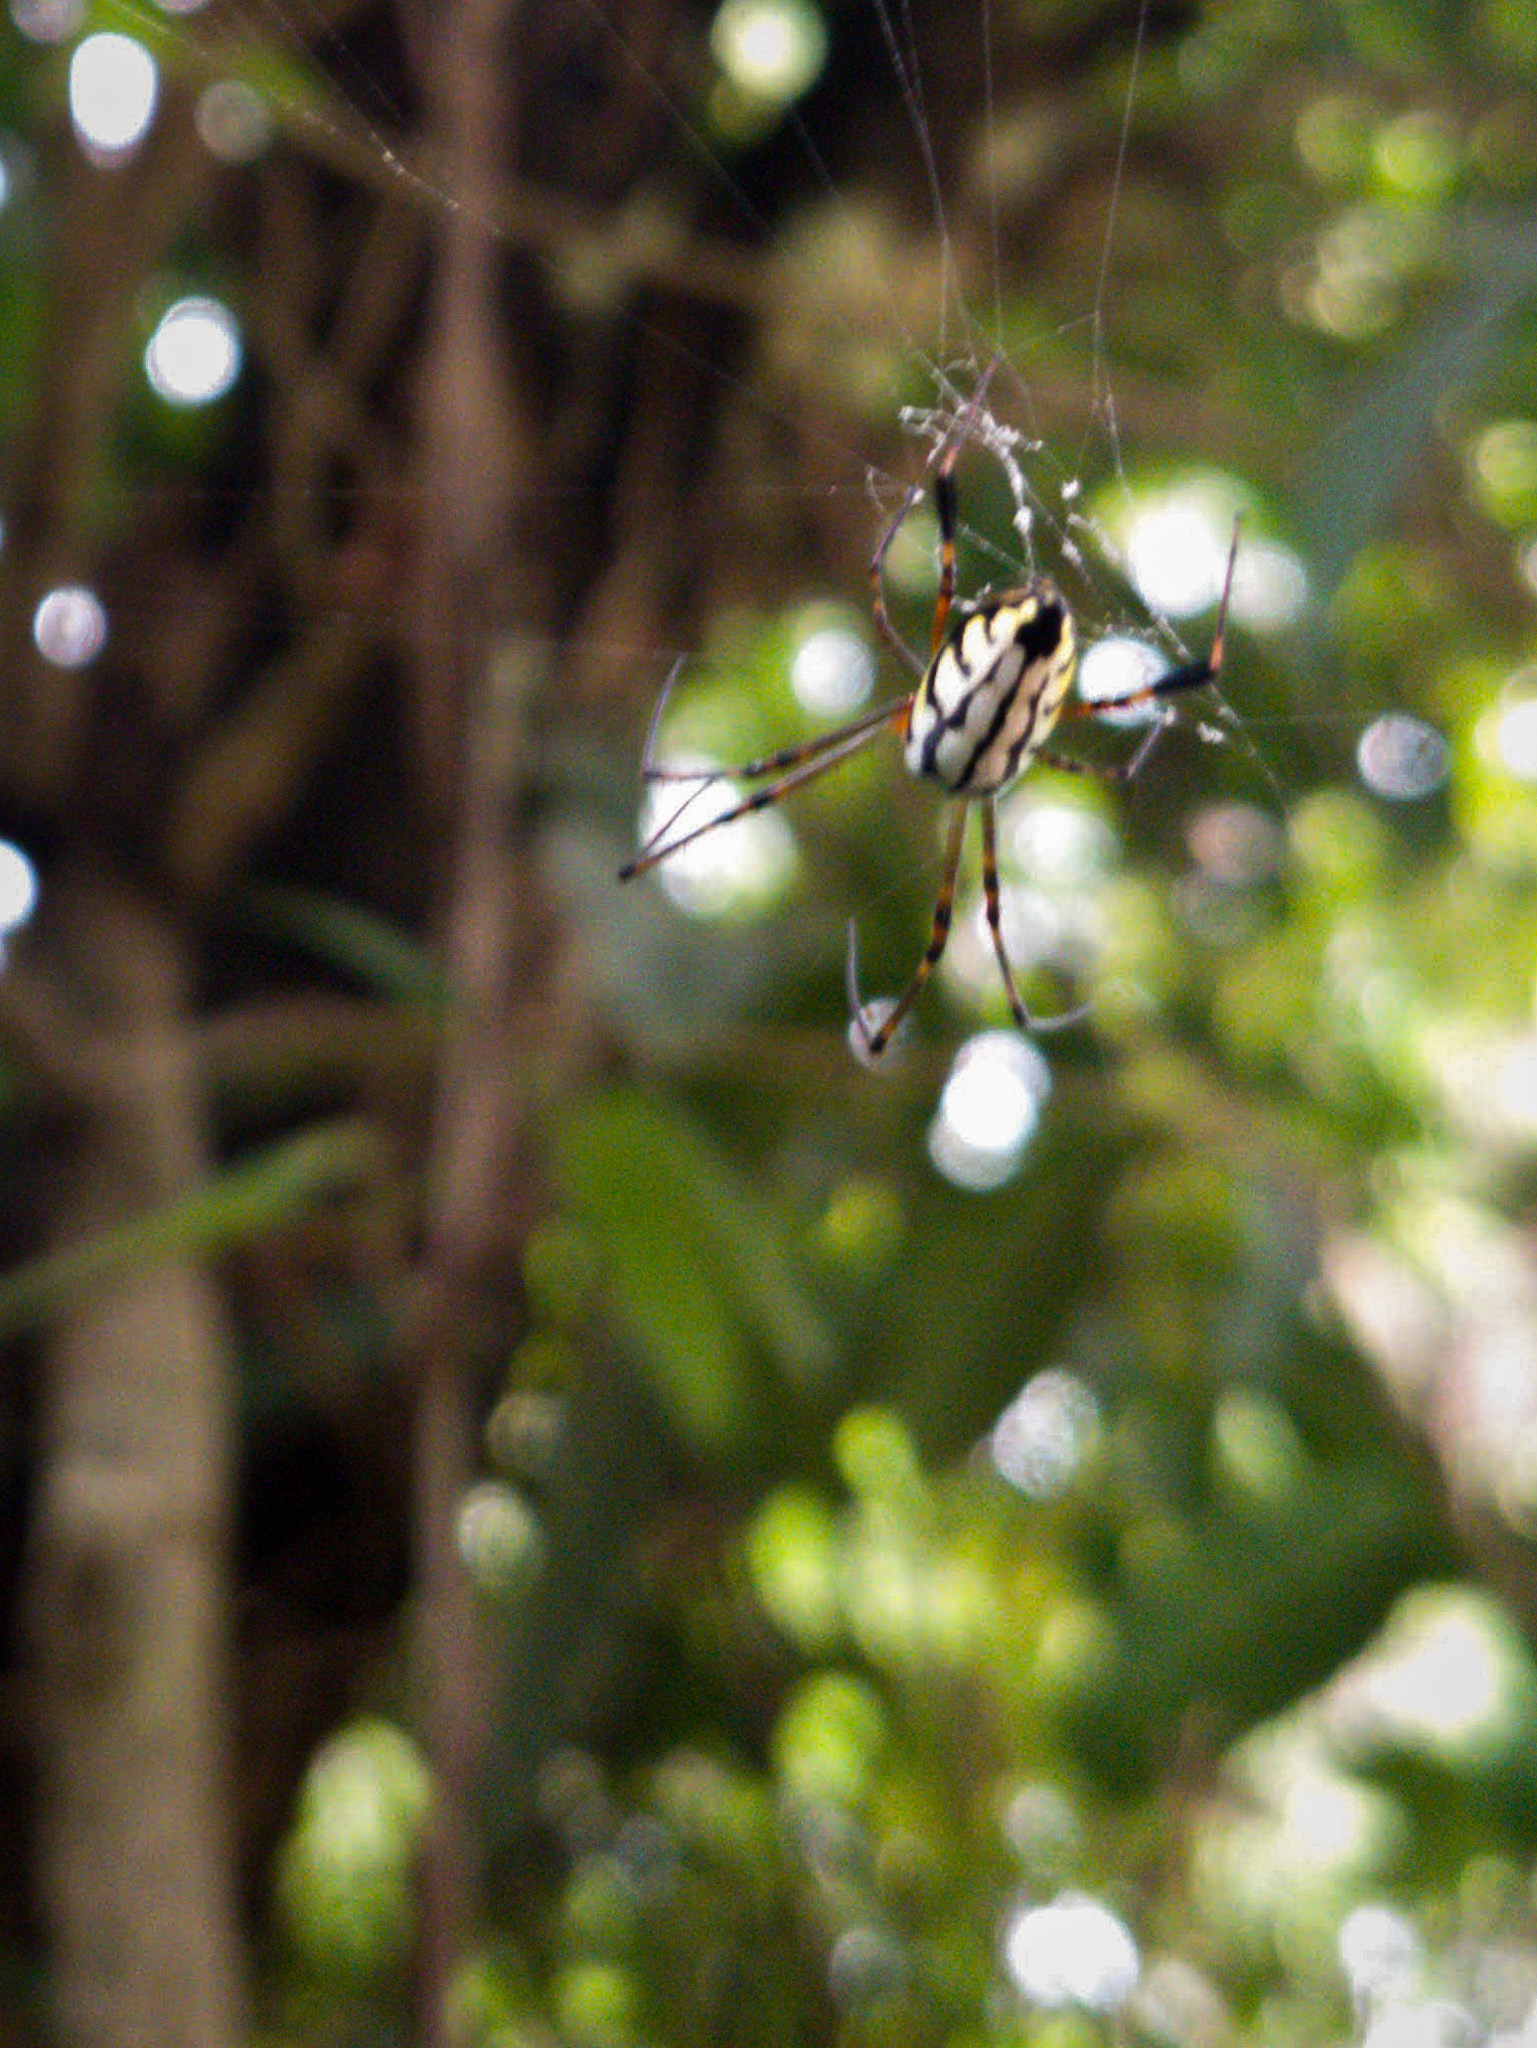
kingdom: Animalia
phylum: Arthropoda
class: Arachnida
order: Araneae
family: Tetragnathidae
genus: Leucauge
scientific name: Leucauge fastigata
